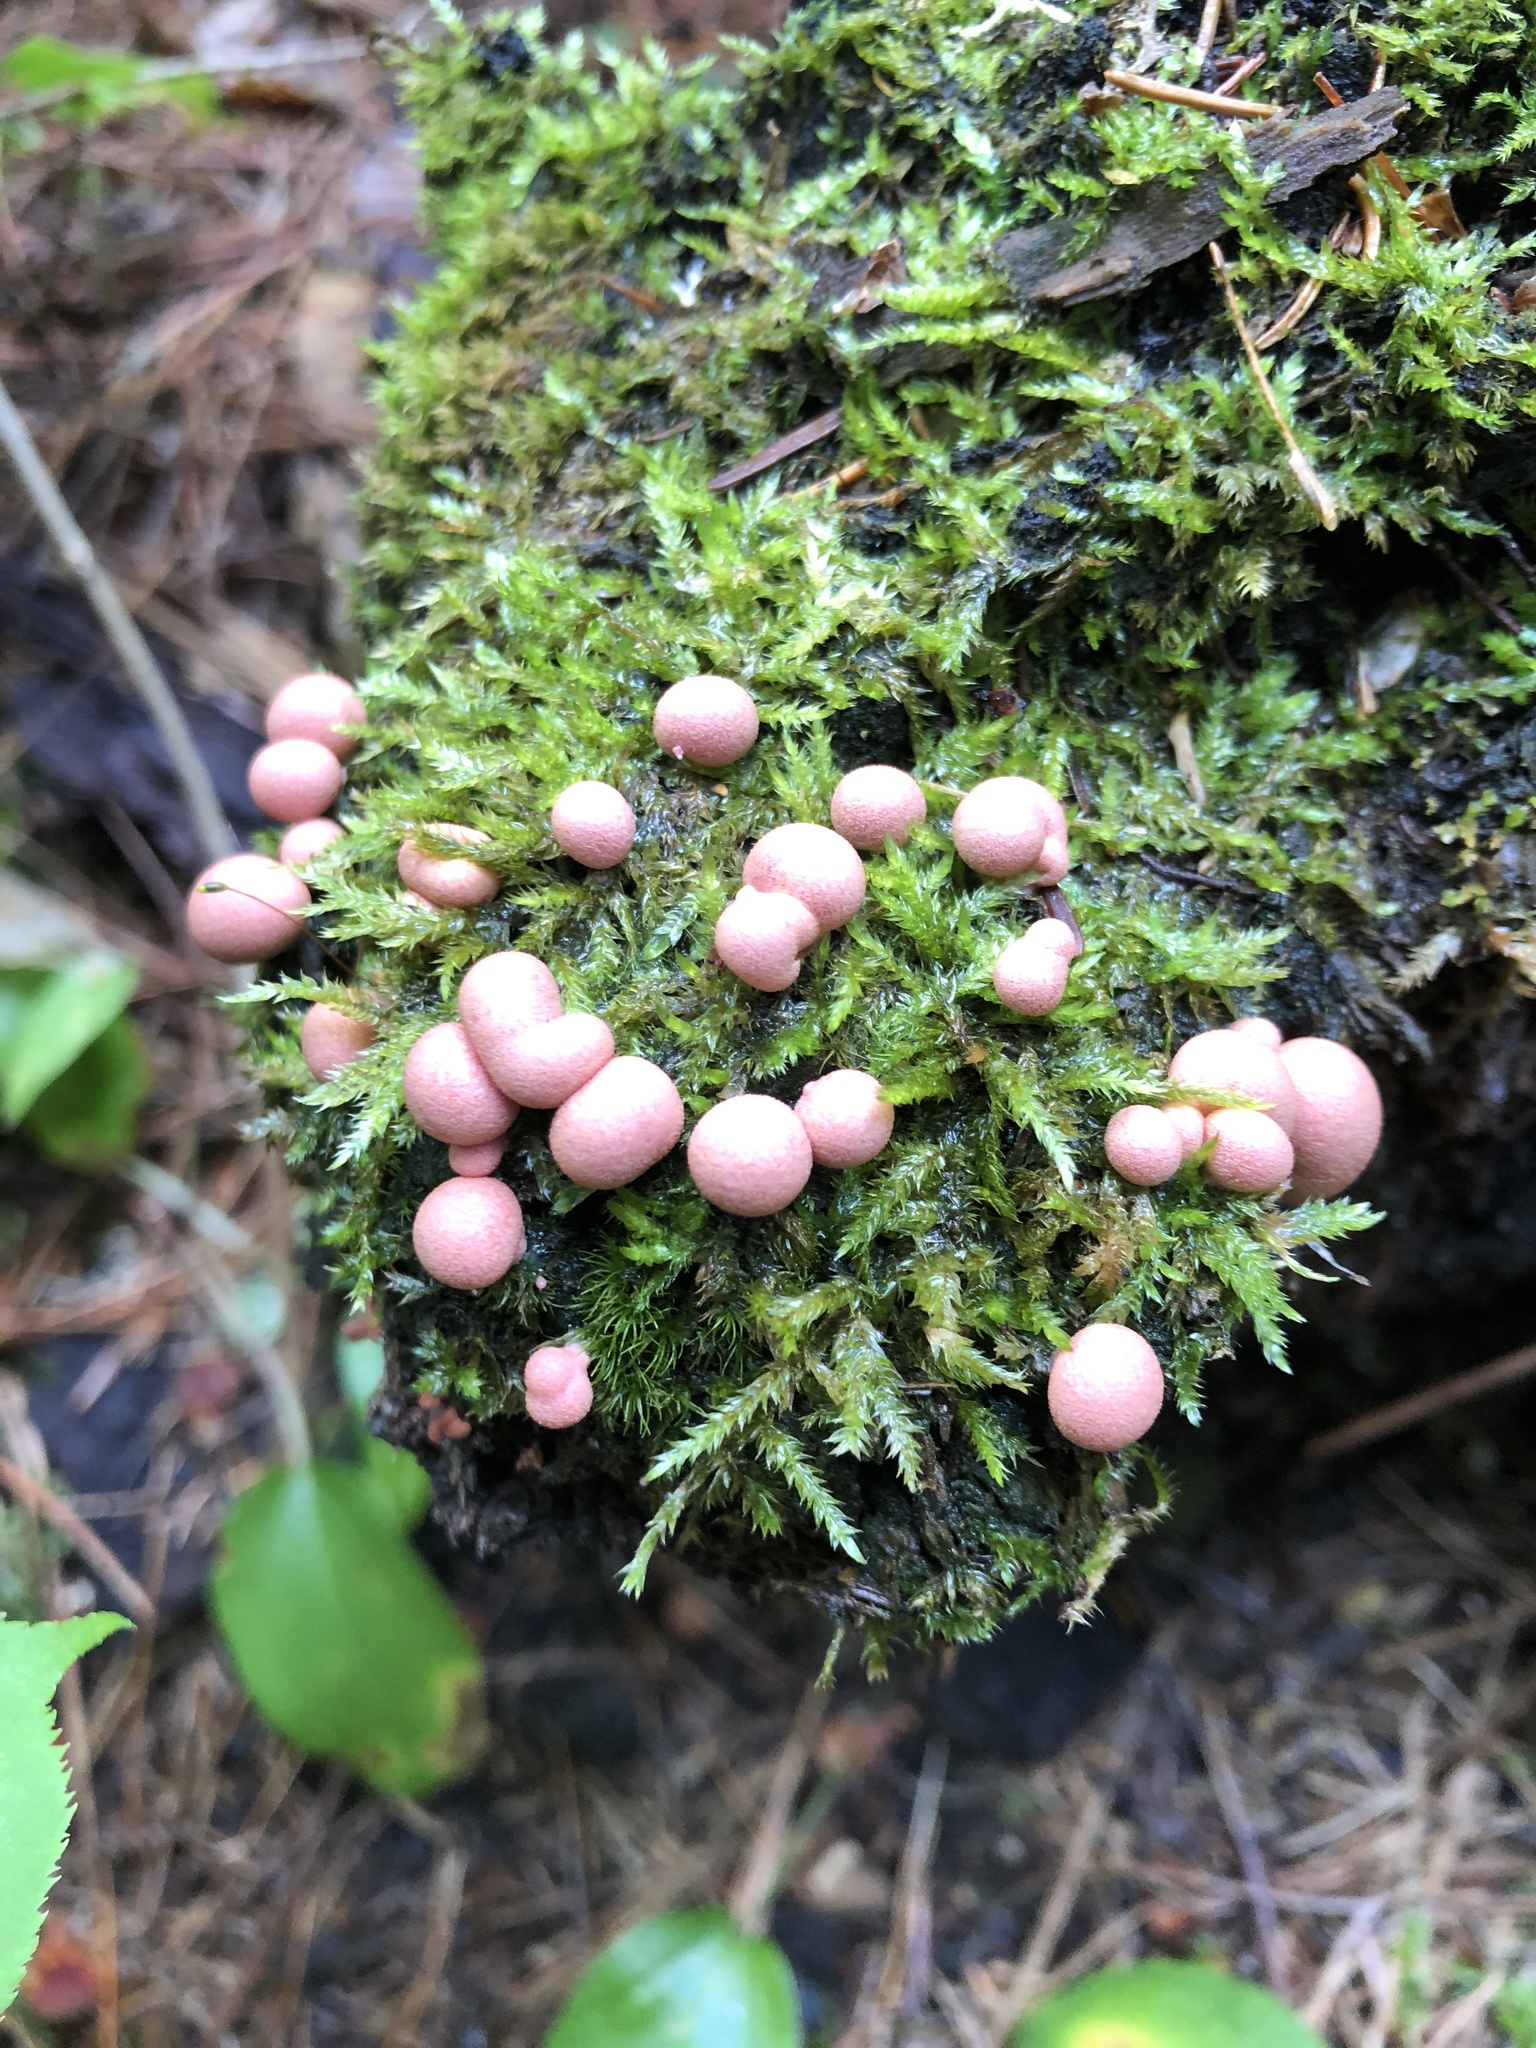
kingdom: Protozoa
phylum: Mycetozoa
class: Myxomycetes
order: Cribrariales
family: Tubiferaceae
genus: Lycogala
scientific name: Lycogala epidendrum
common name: Wolf's milk
